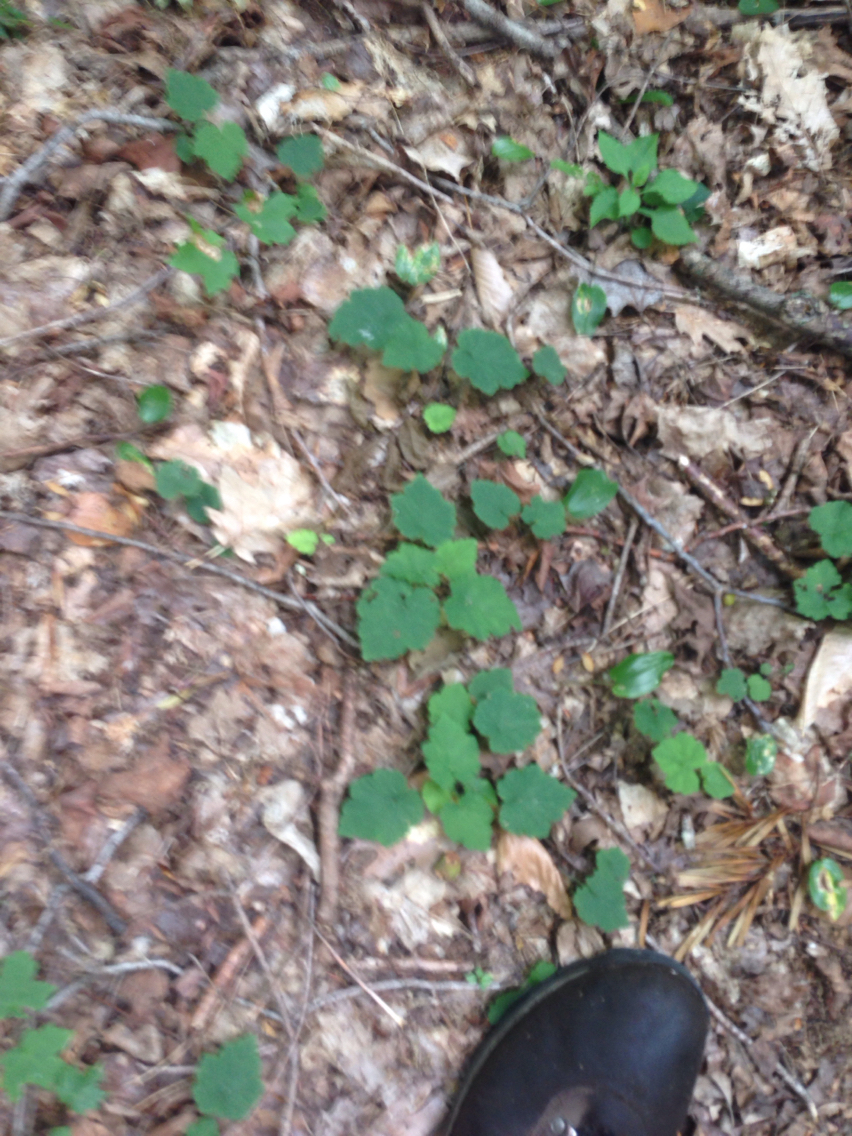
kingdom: Plantae
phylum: Tracheophyta
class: Magnoliopsida
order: Saxifragales
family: Saxifragaceae
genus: Tiarella
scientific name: Tiarella stolonifera
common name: Stoloniferous foamflower
